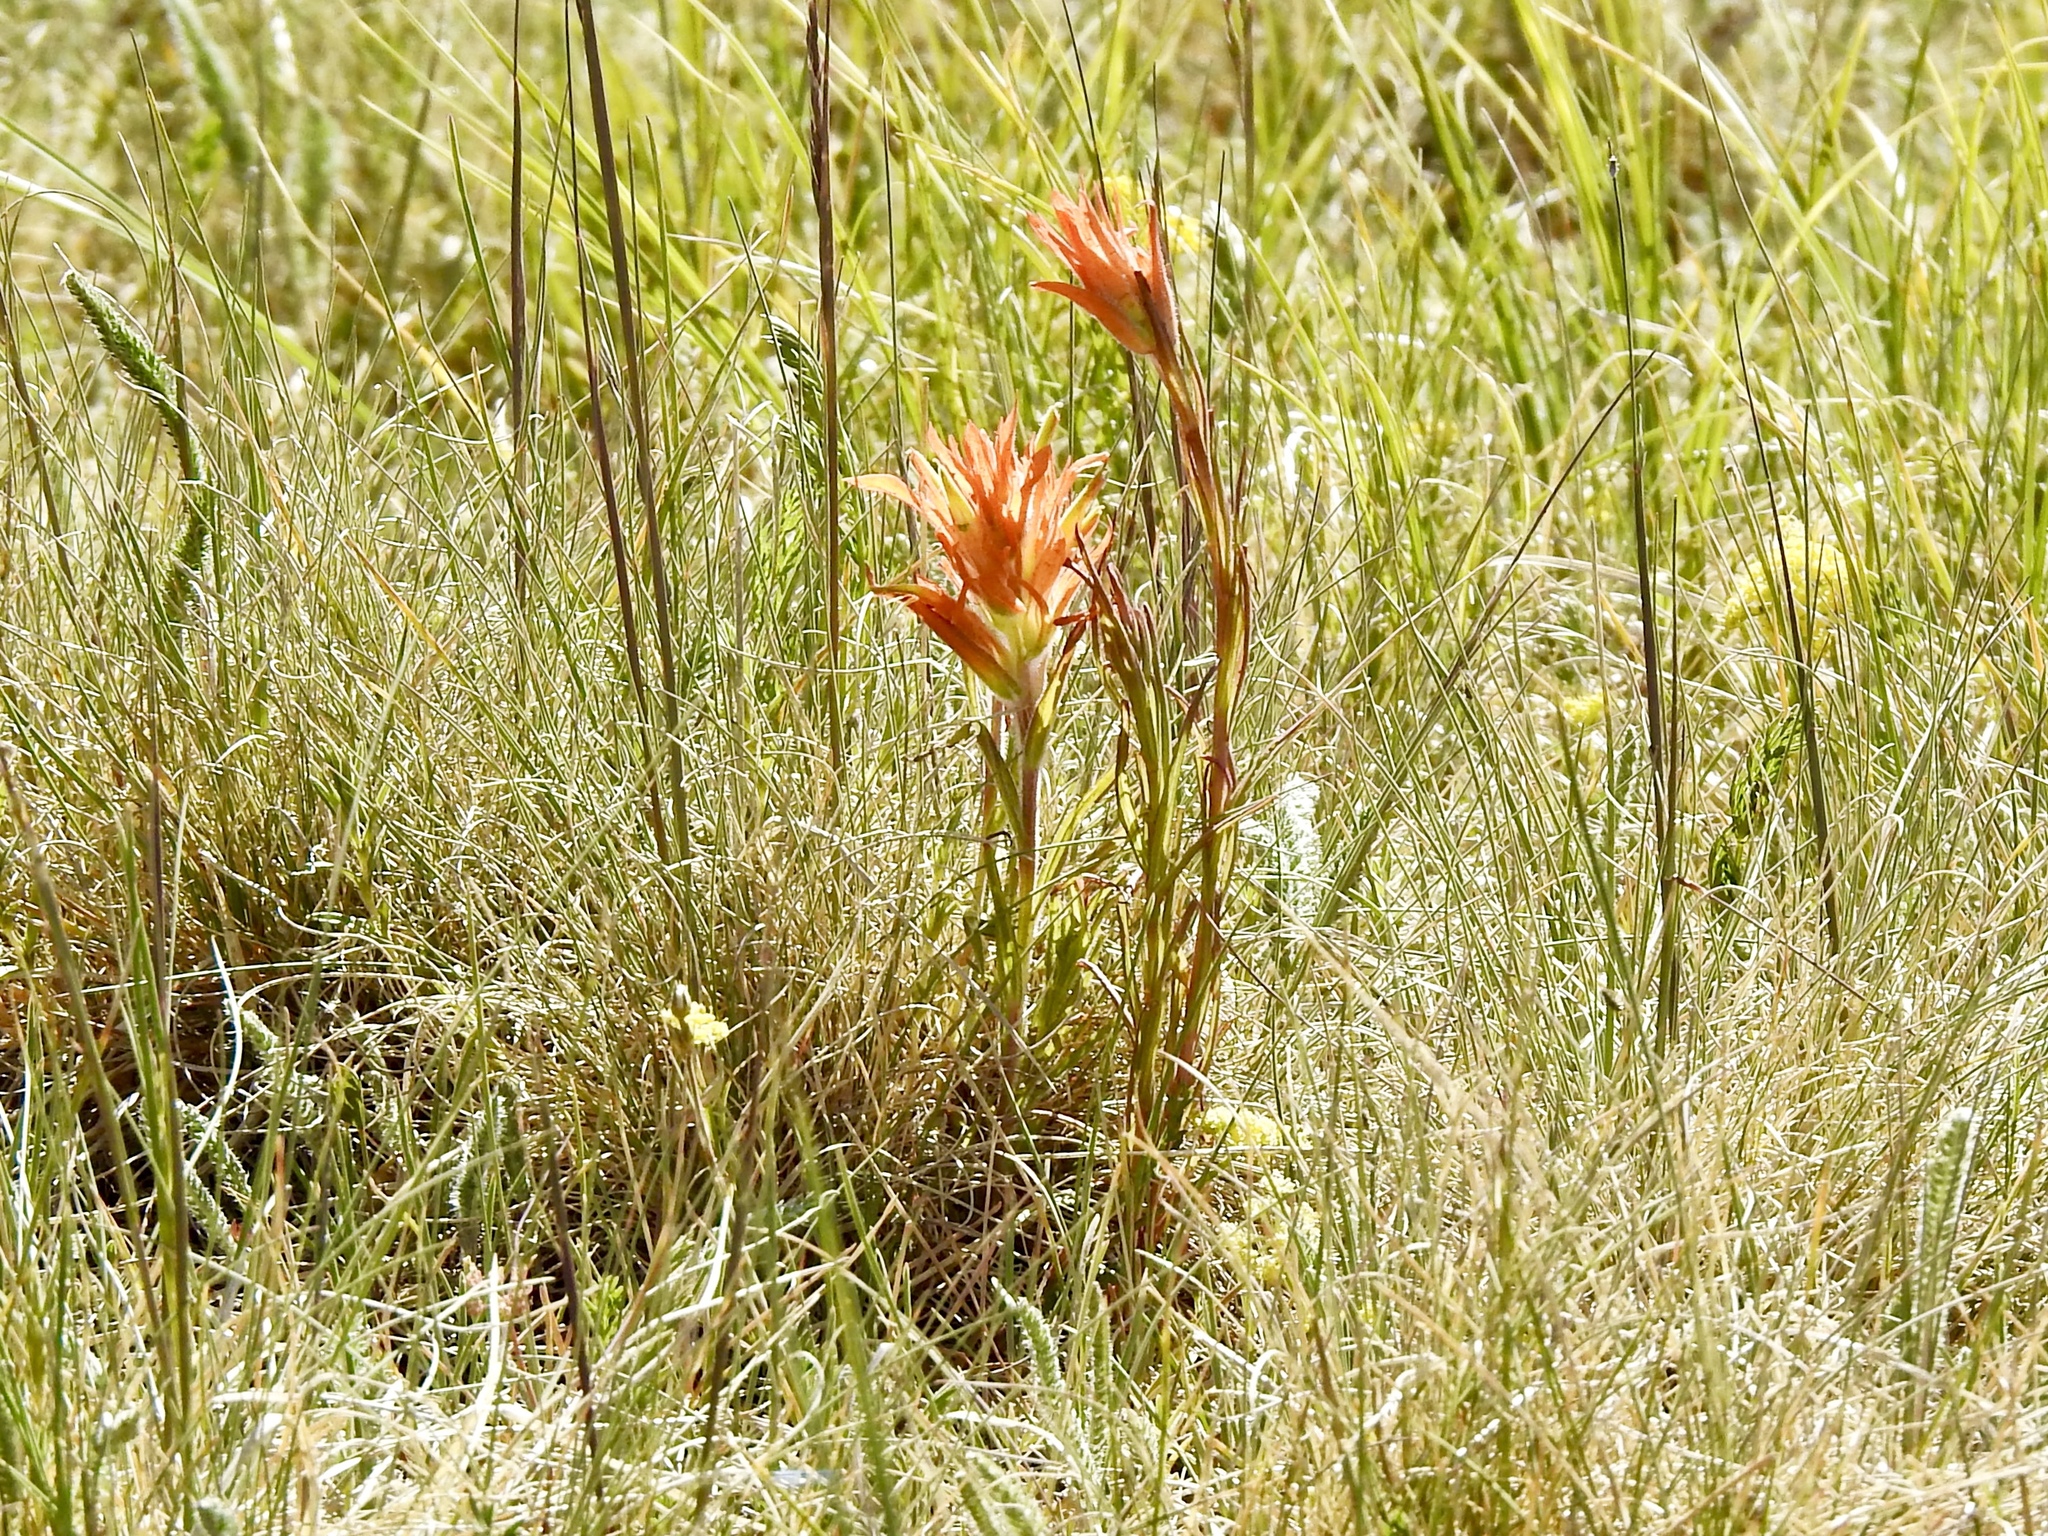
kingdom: Plantae
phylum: Tracheophyta
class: Magnoliopsida
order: Lamiales
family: Orobanchaceae
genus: Castilleja
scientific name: Castilleja wootonii
